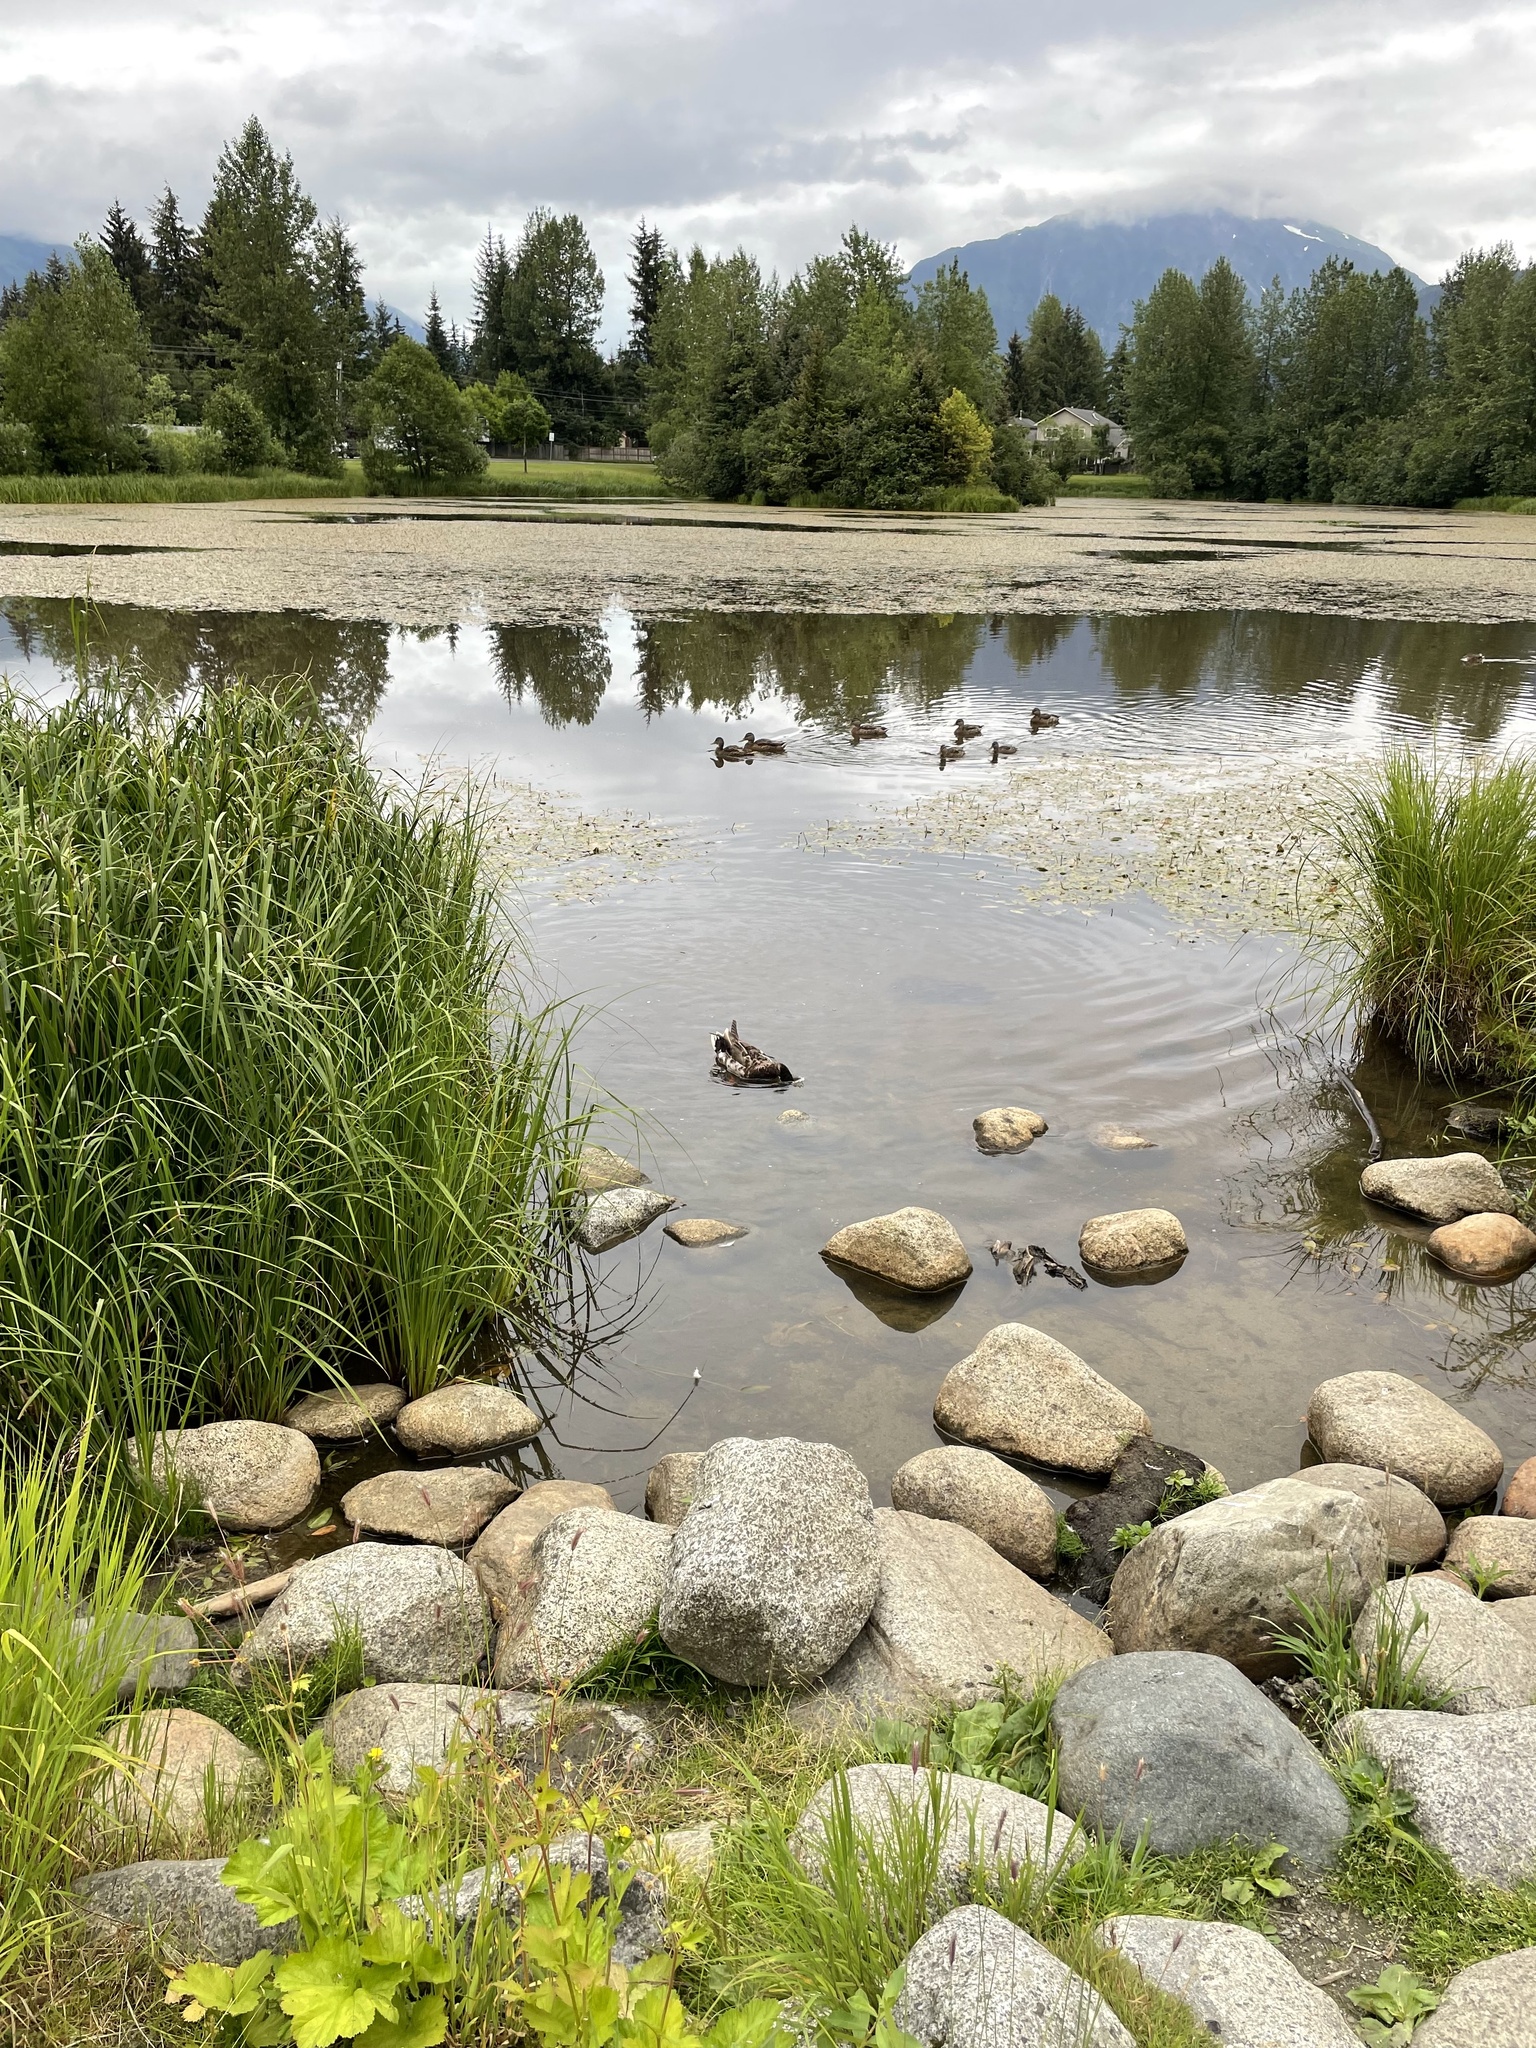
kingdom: Animalia
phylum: Chordata
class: Aves
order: Anseriformes
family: Anatidae
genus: Anas
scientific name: Anas platyrhynchos
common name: Mallard
